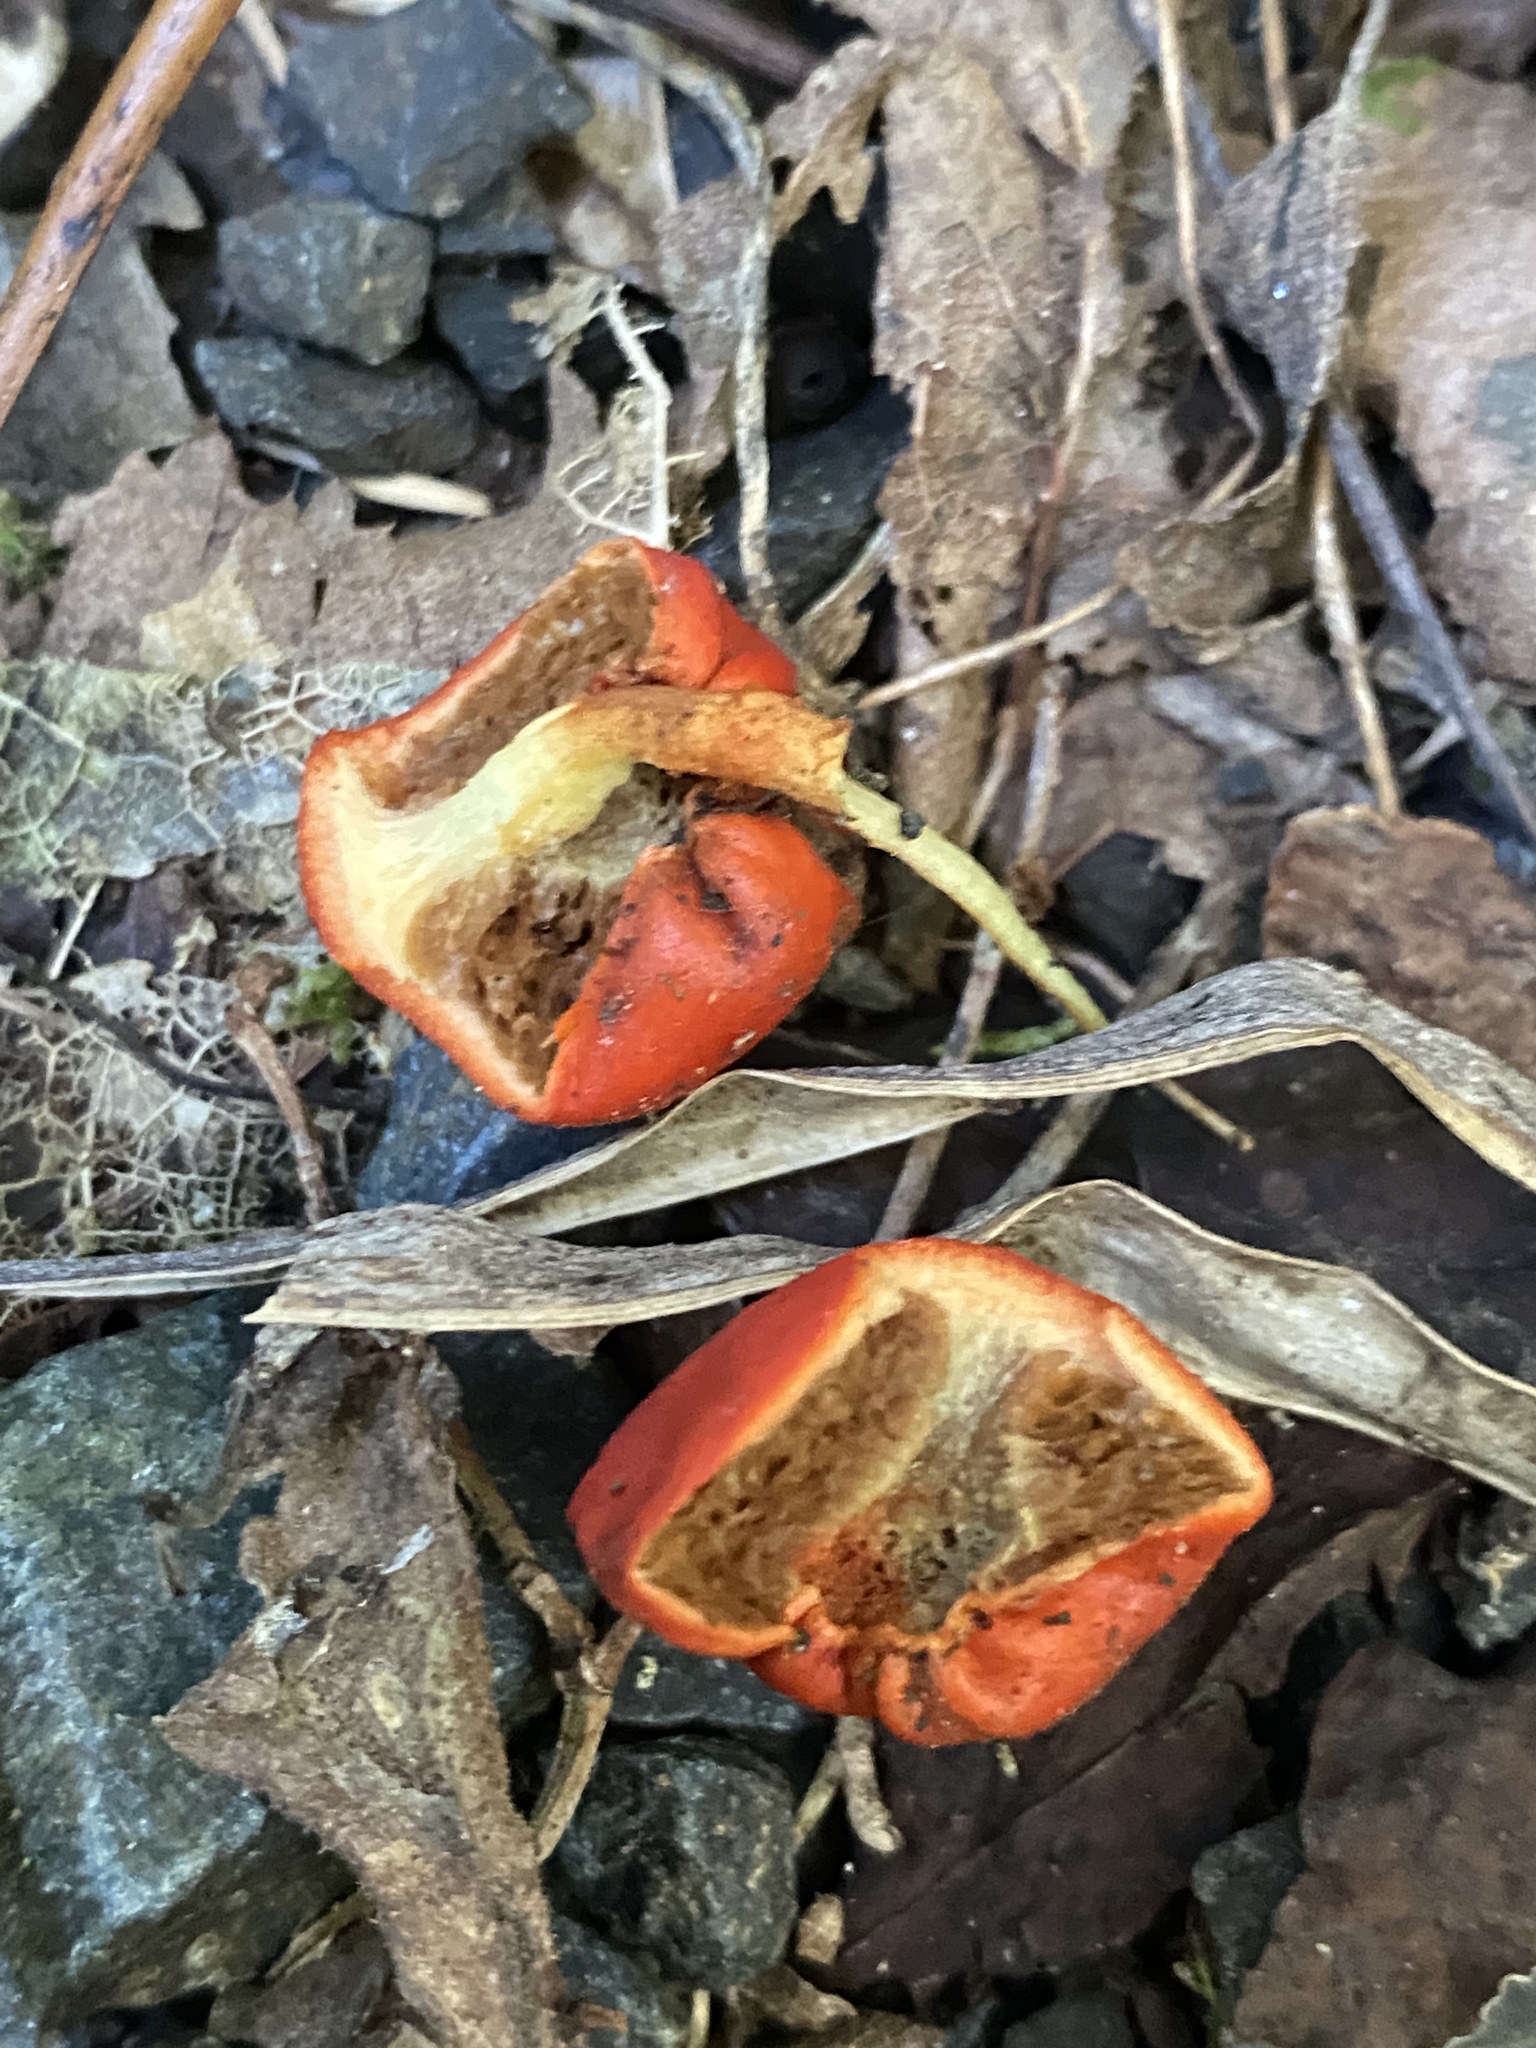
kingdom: Fungi
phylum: Basidiomycota
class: Agaricomycetes
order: Agaricales
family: Strophariaceae
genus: Leratiomyces
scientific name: Leratiomyces erythrocephalus
